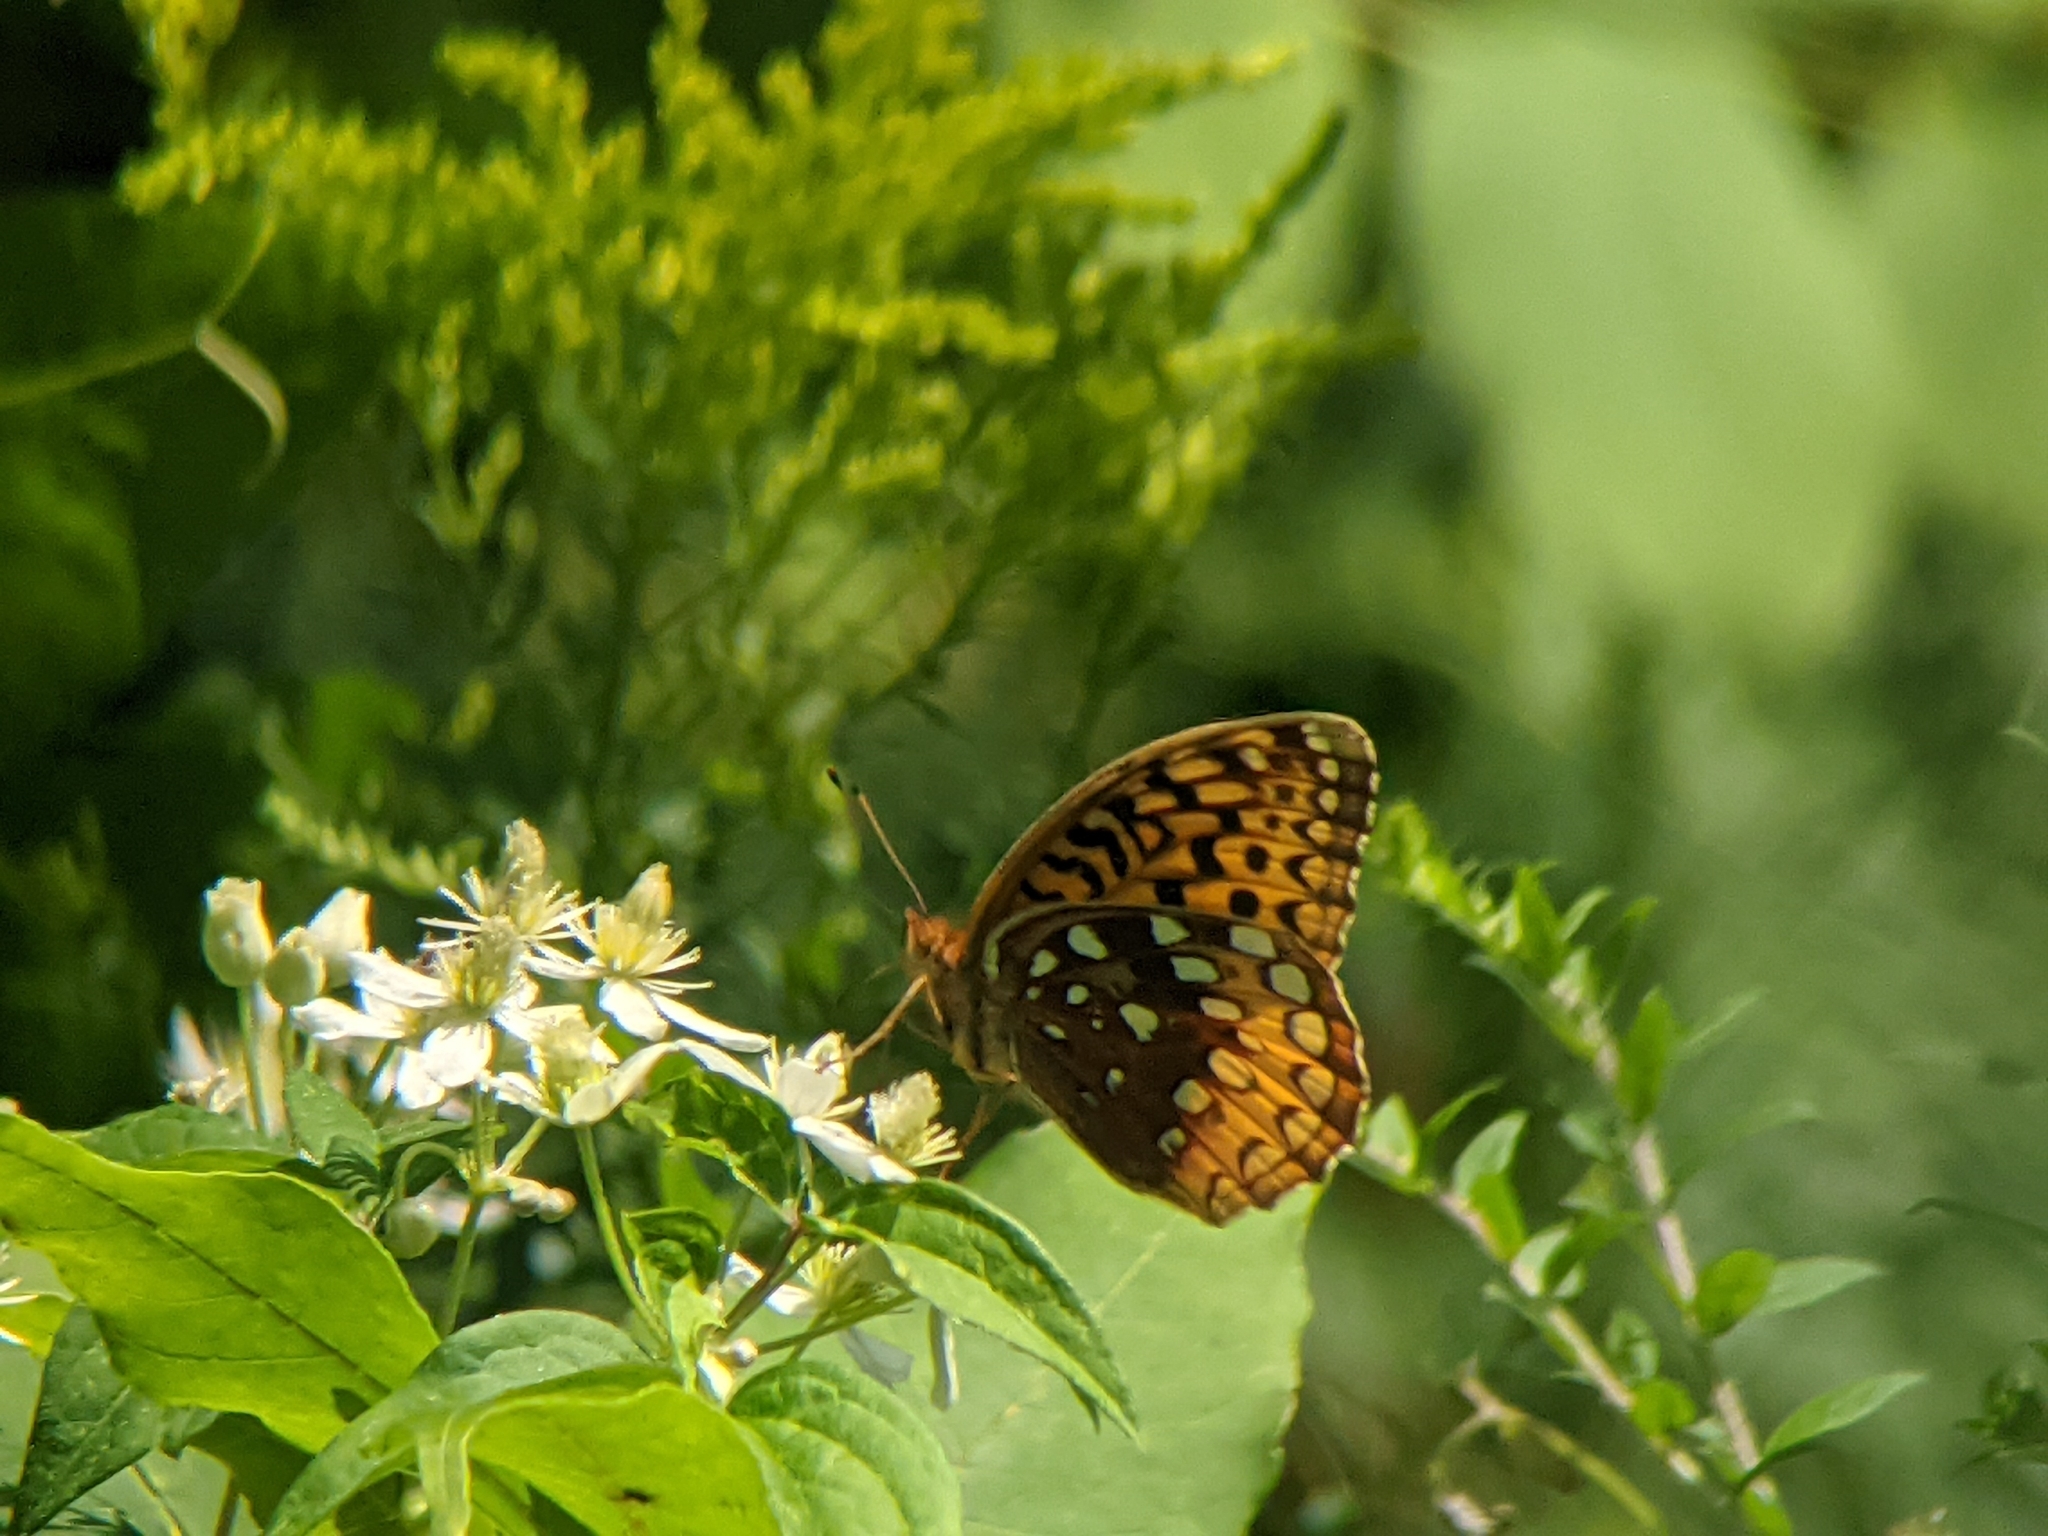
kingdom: Animalia
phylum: Arthropoda
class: Insecta
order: Lepidoptera
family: Nymphalidae
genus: Speyeria
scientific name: Speyeria cybele
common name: Great spangled fritillary
